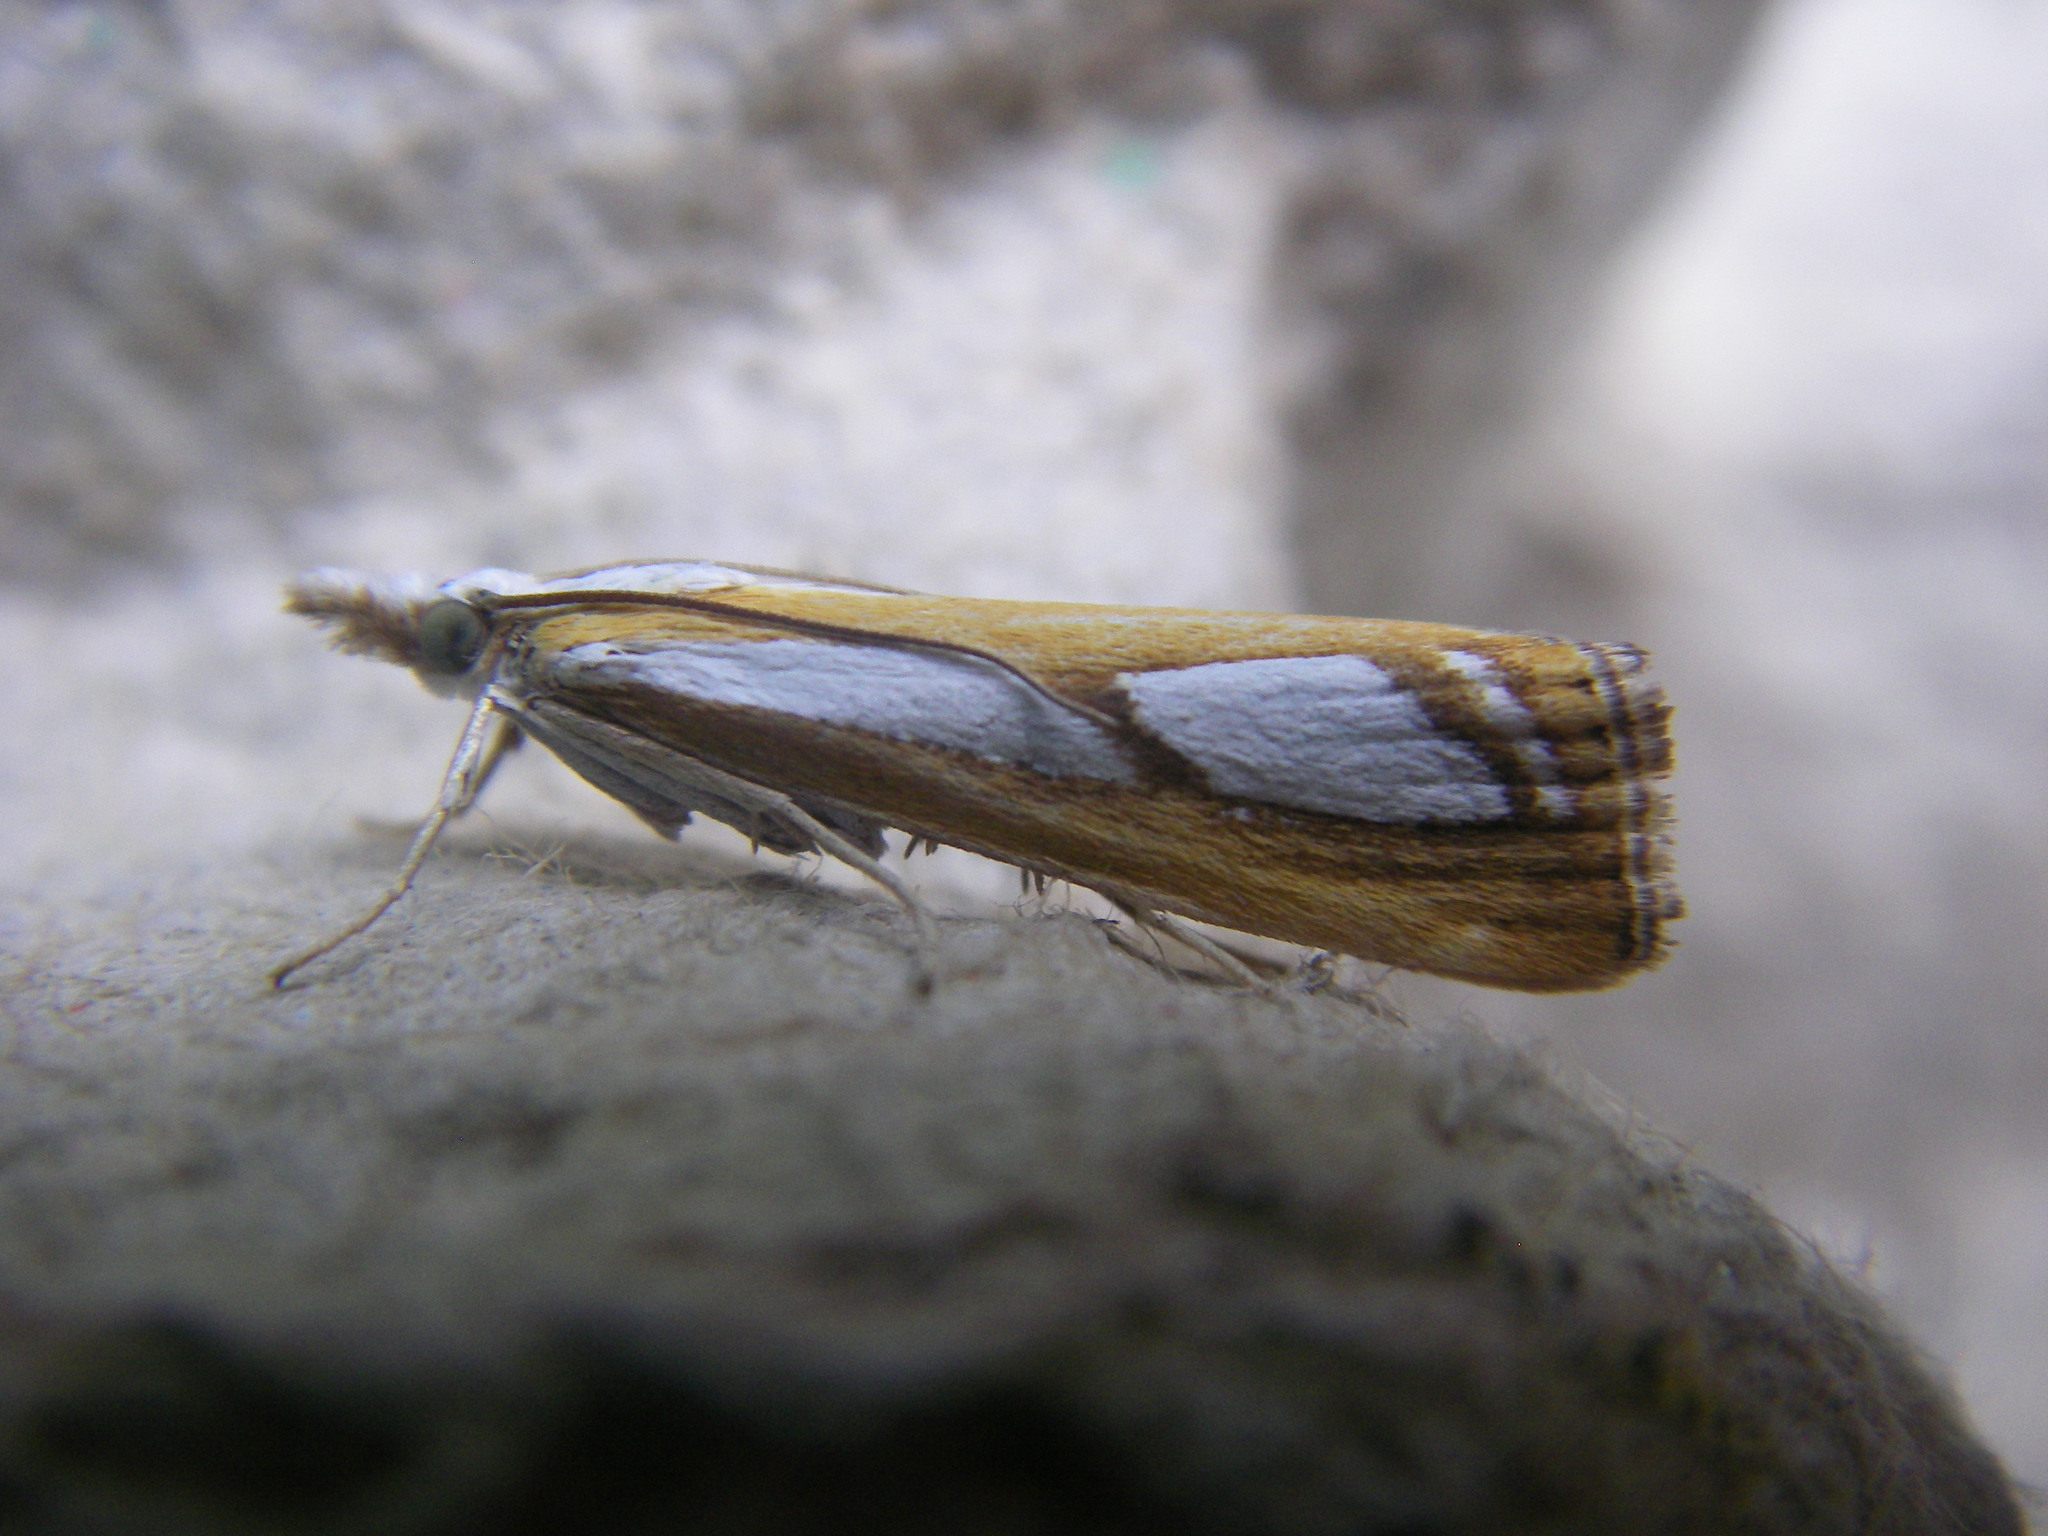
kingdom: Animalia
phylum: Arthropoda
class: Insecta
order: Lepidoptera
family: Crambidae
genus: Catoptria
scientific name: Catoptria permutatellus
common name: Scotch grass-veneer
